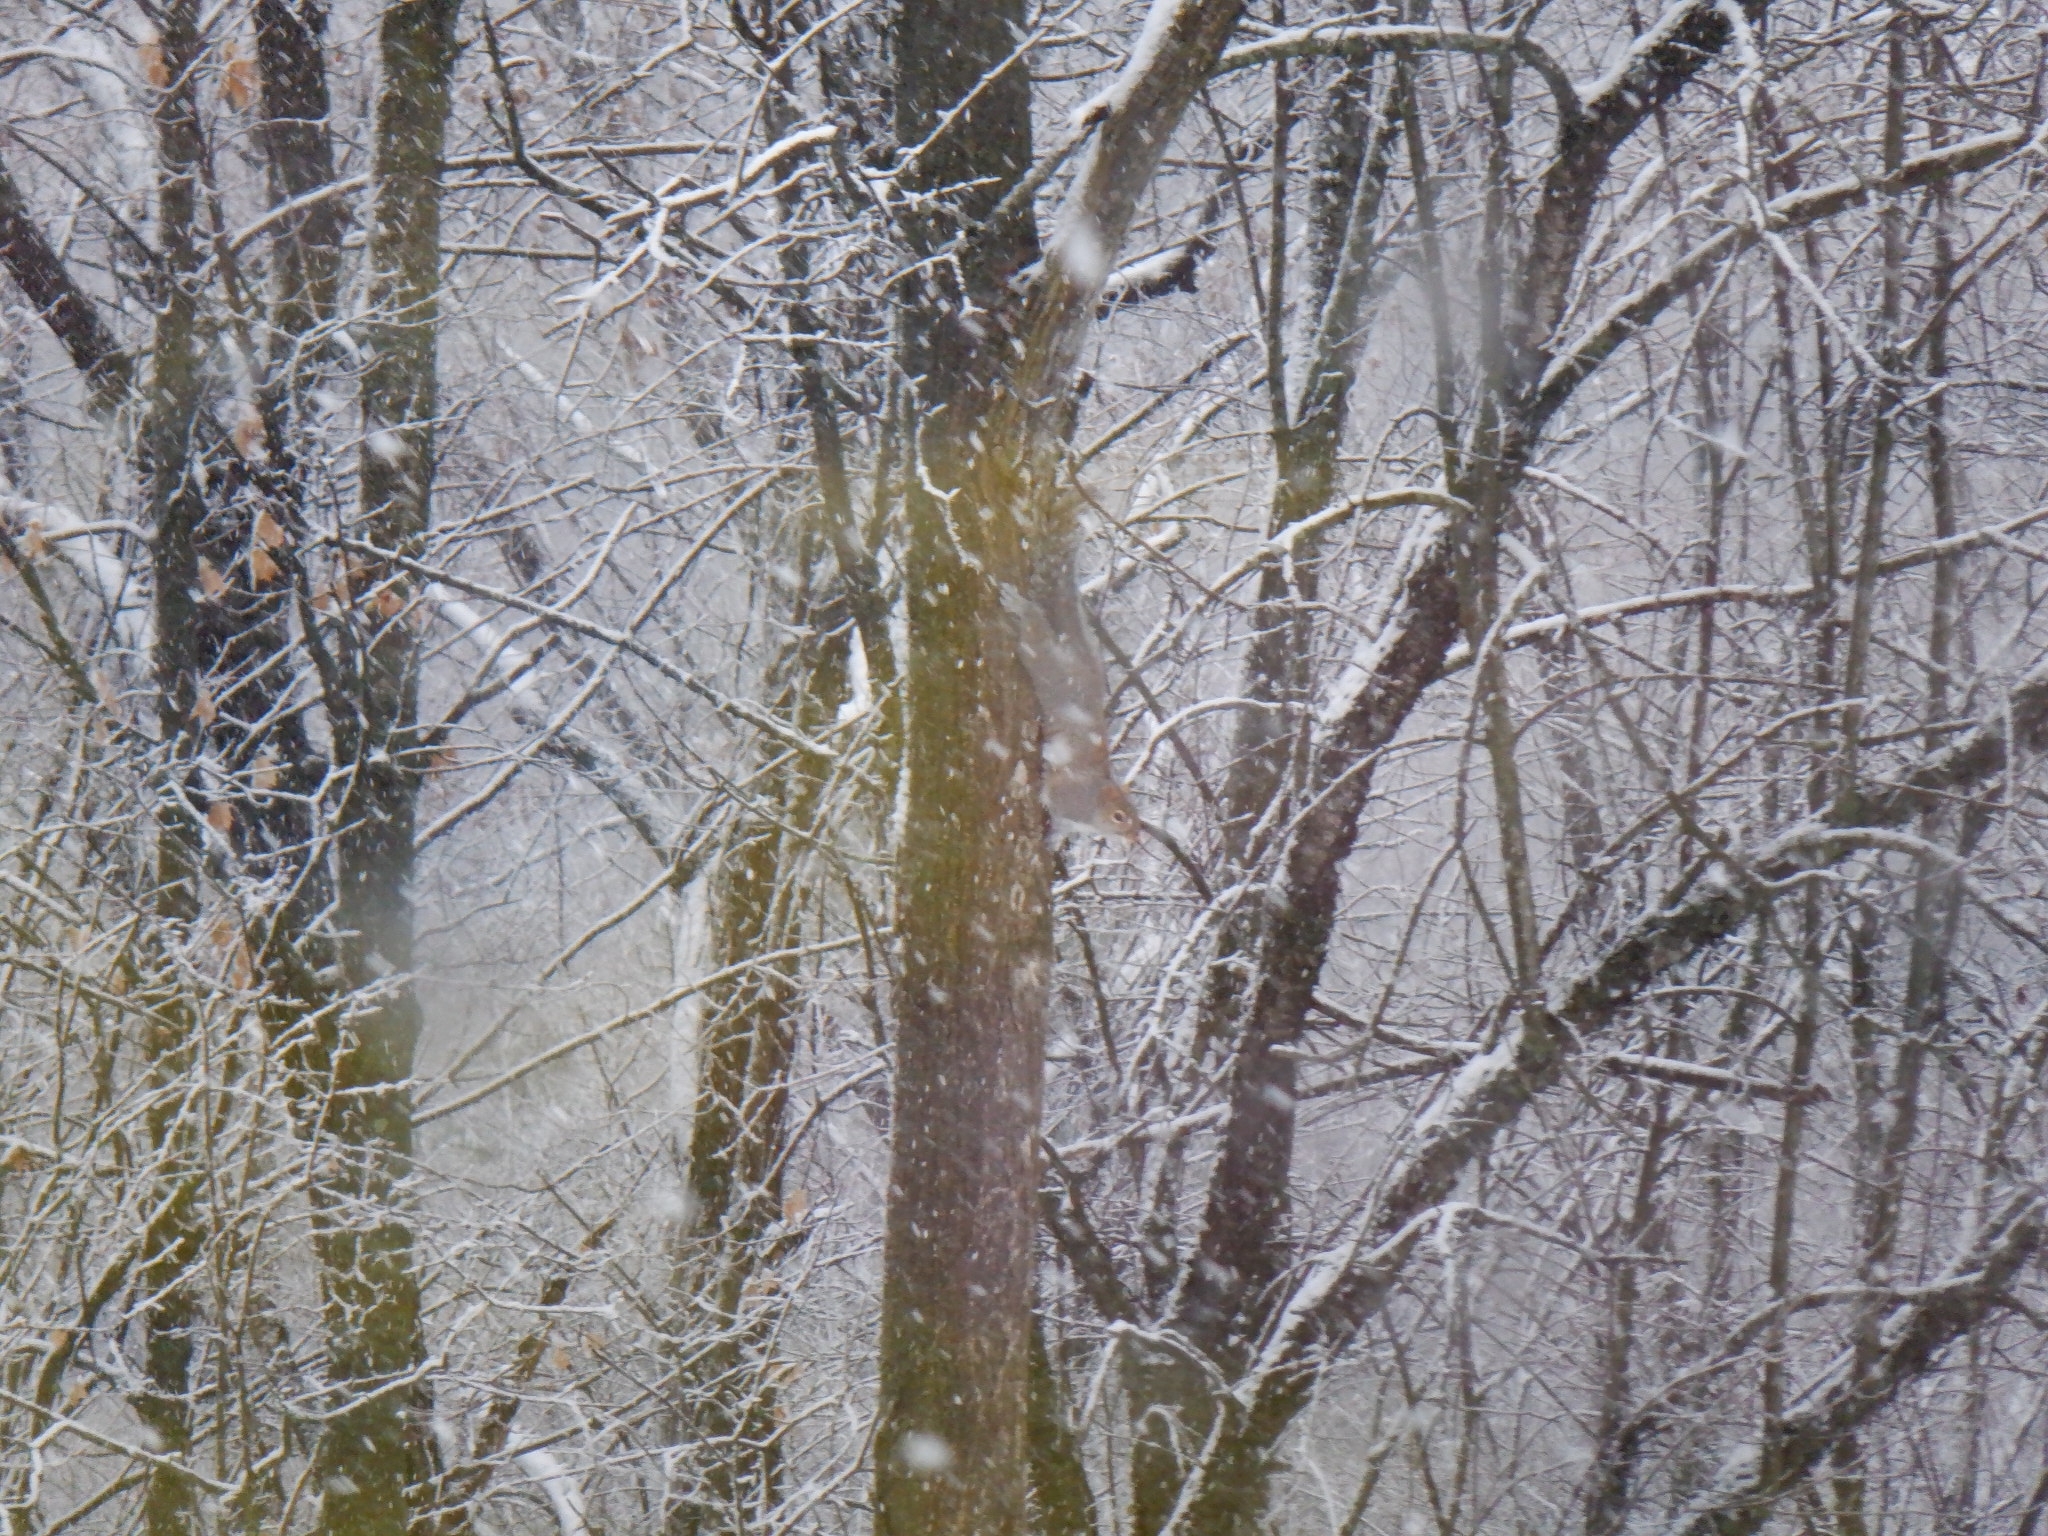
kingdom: Animalia
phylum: Chordata
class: Mammalia
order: Rodentia
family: Sciuridae
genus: Sciurus
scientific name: Sciurus carolinensis
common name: Eastern gray squirrel
